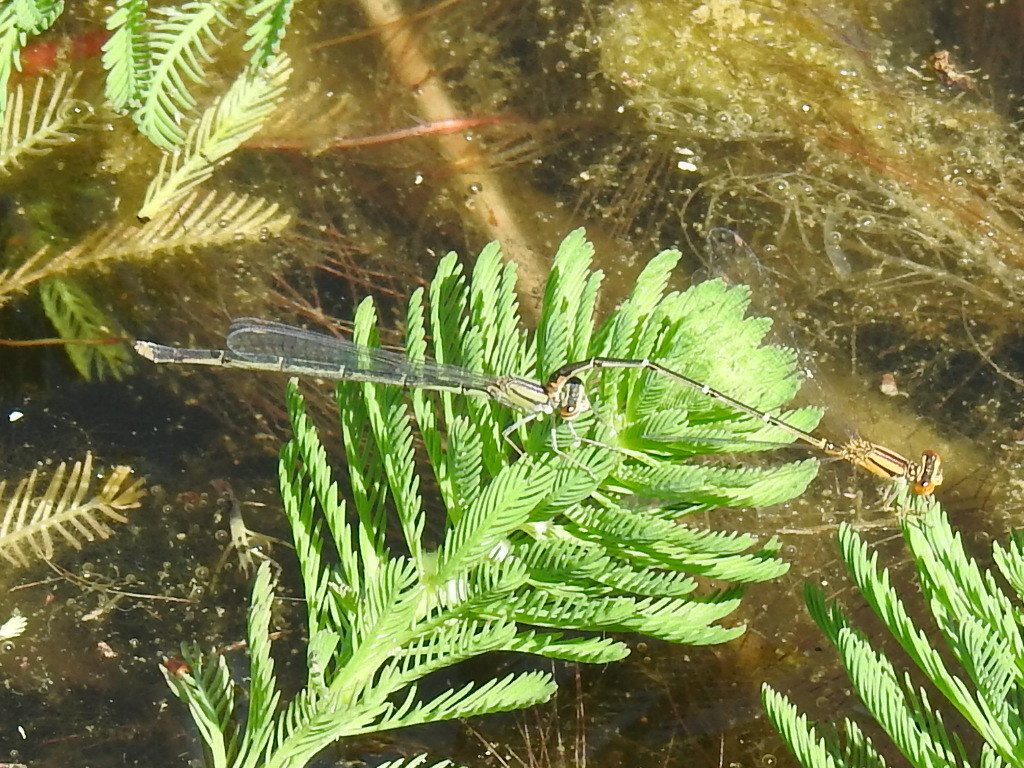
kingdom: Animalia
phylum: Arthropoda
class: Insecta
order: Odonata
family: Coenagrionidae
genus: Enallagma
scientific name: Enallagma signatum
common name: Orange bluet
